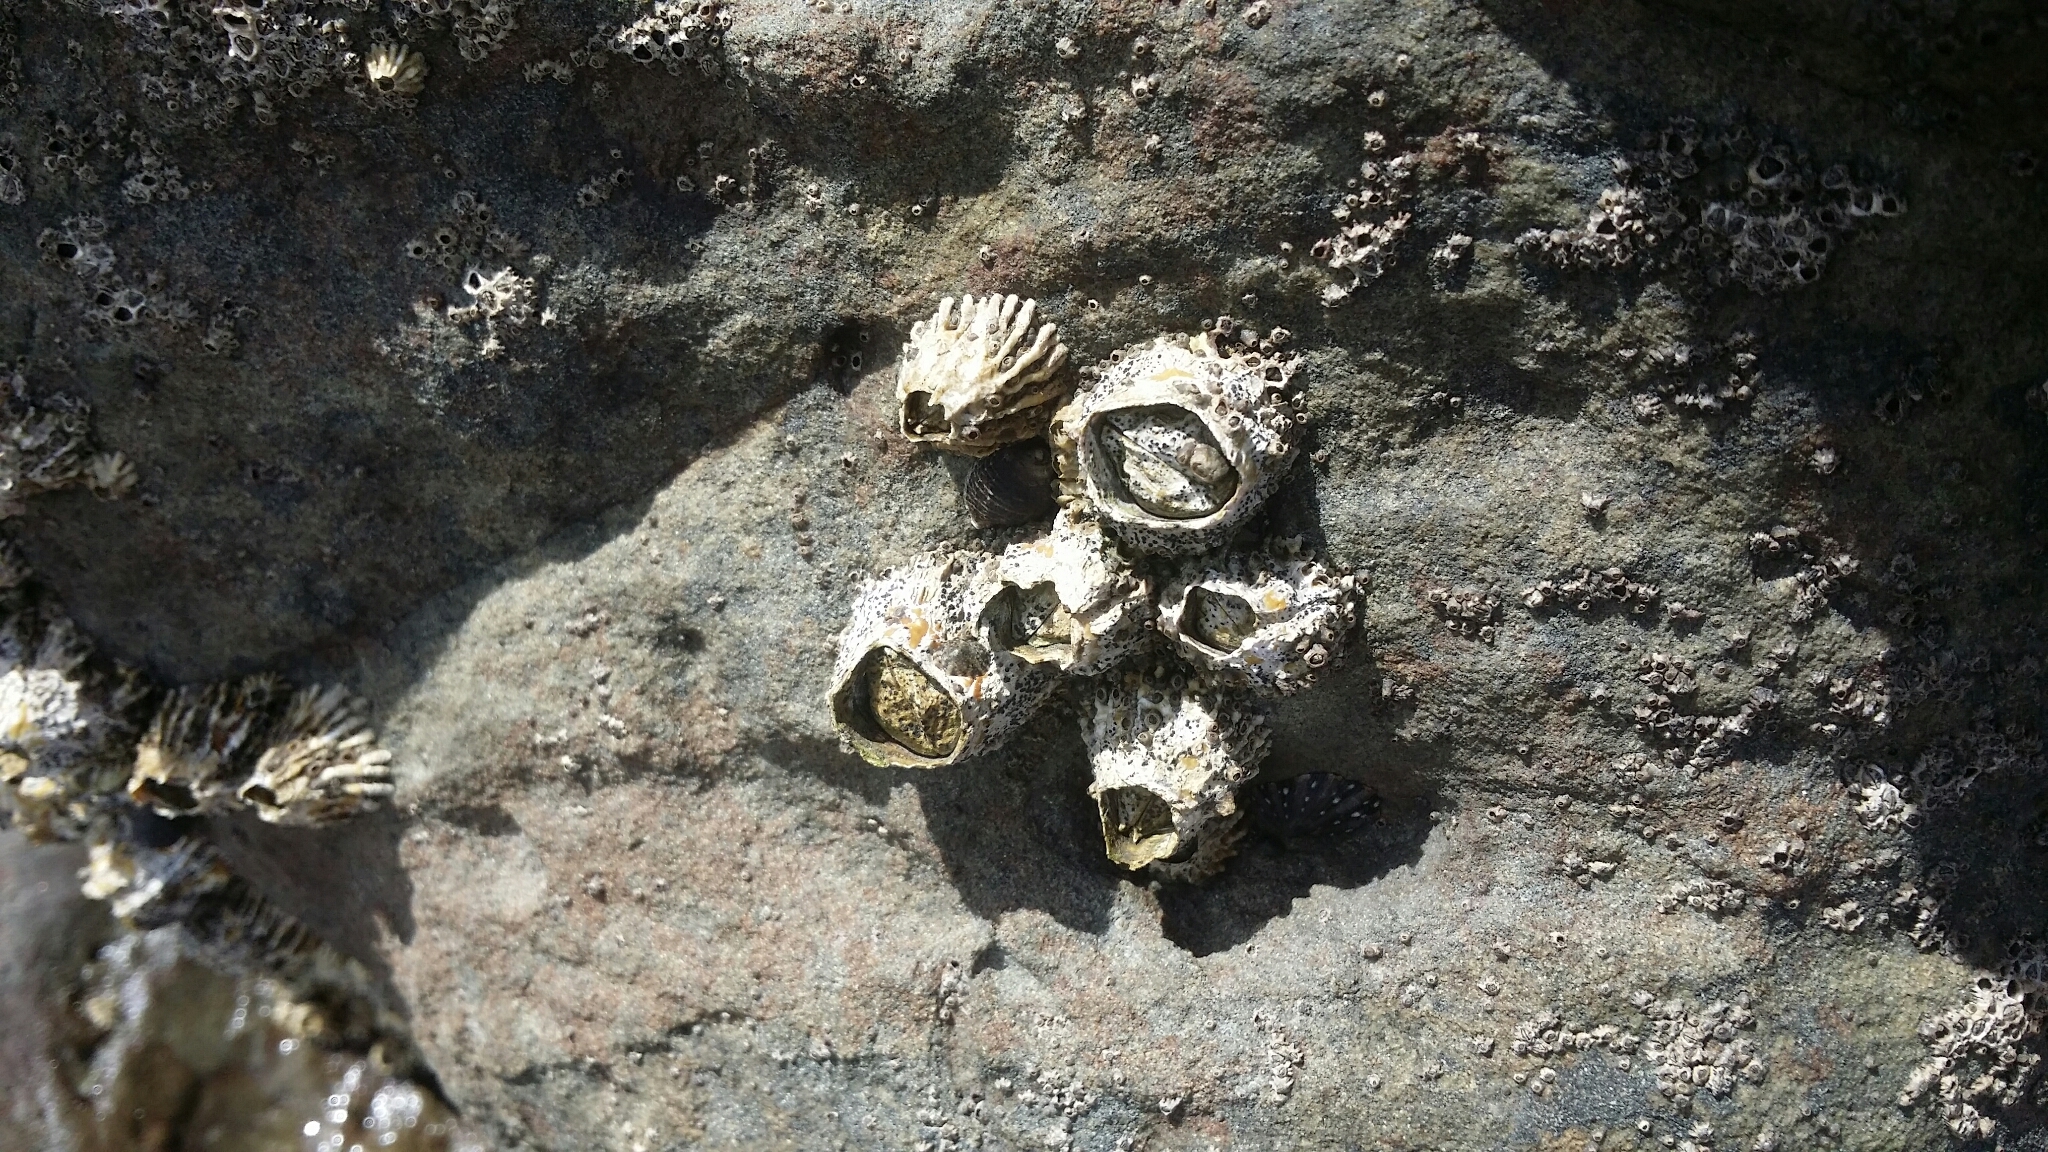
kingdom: Animalia
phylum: Arthropoda
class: Maxillopoda
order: Sessilia
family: Tetraclitidae
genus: Epopella
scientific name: Epopella plicata
